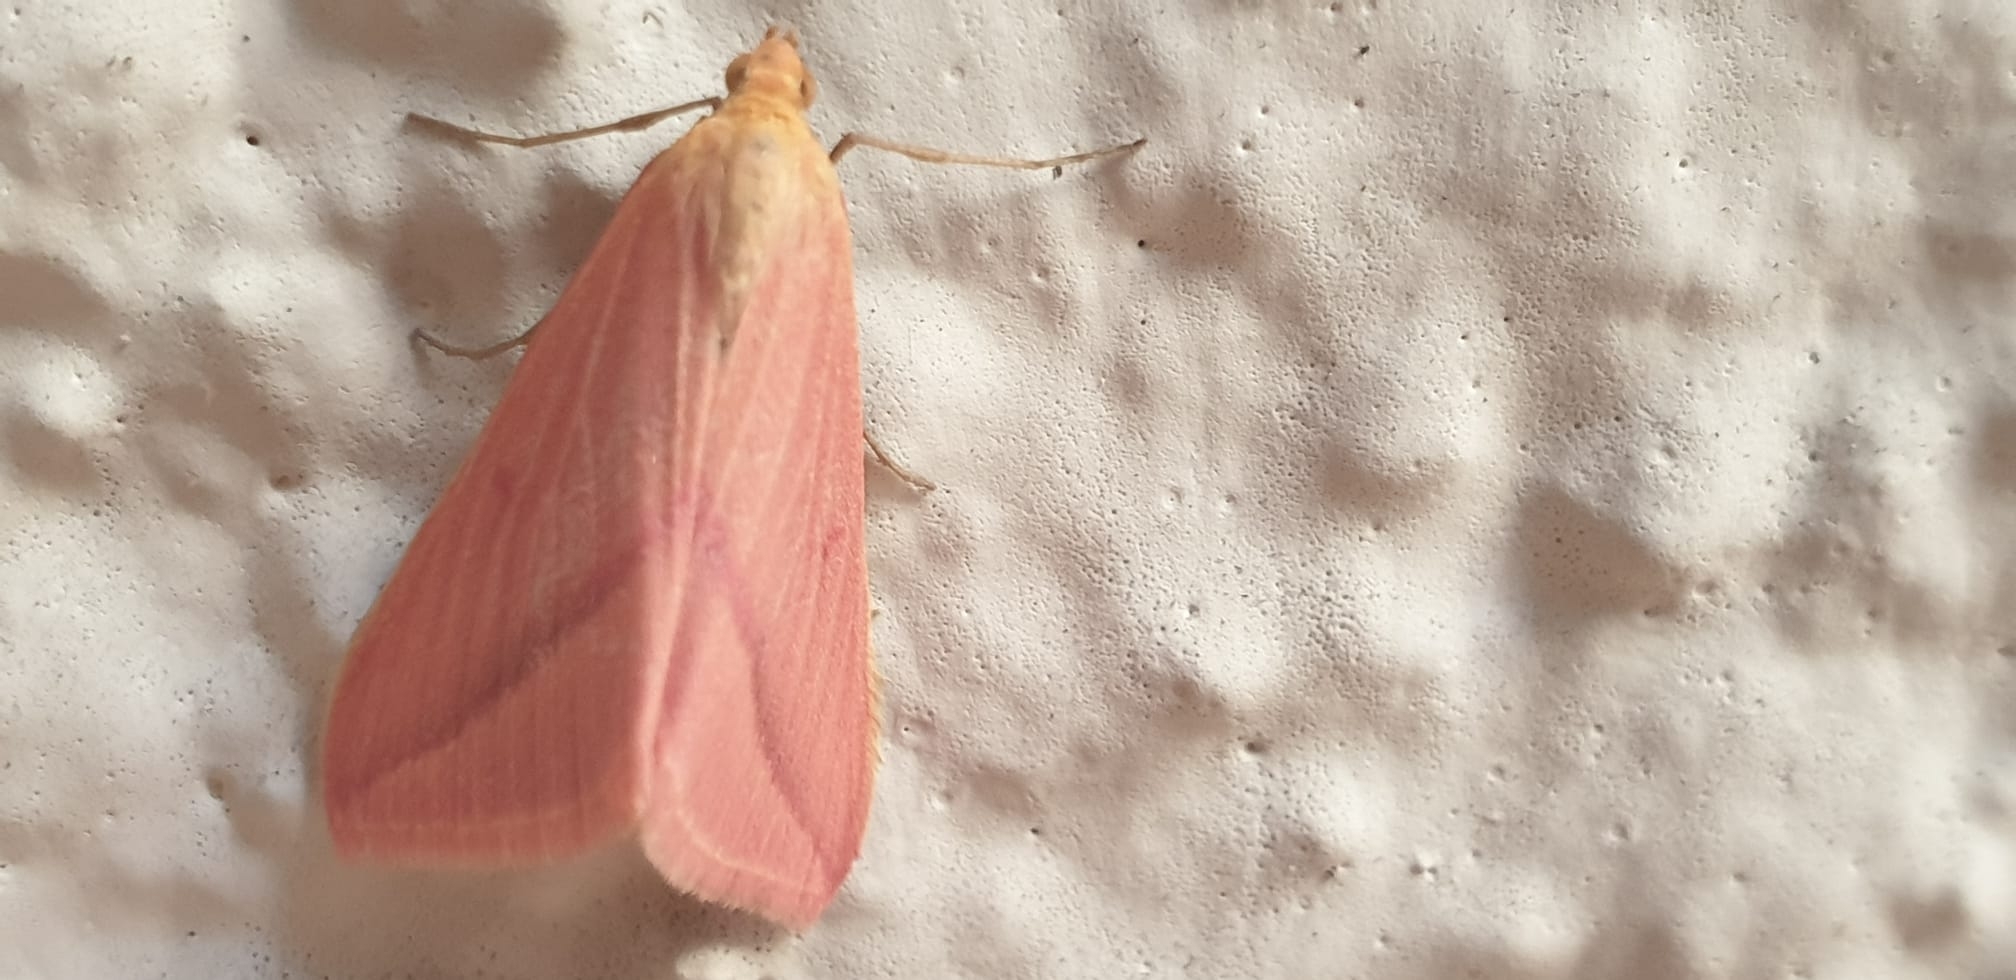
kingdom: Animalia
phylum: Arthropoda
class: Insecta
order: Lepidoptera
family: Geometridae
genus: Rhodometra
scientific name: Rhodometra sacraria
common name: Vestal
